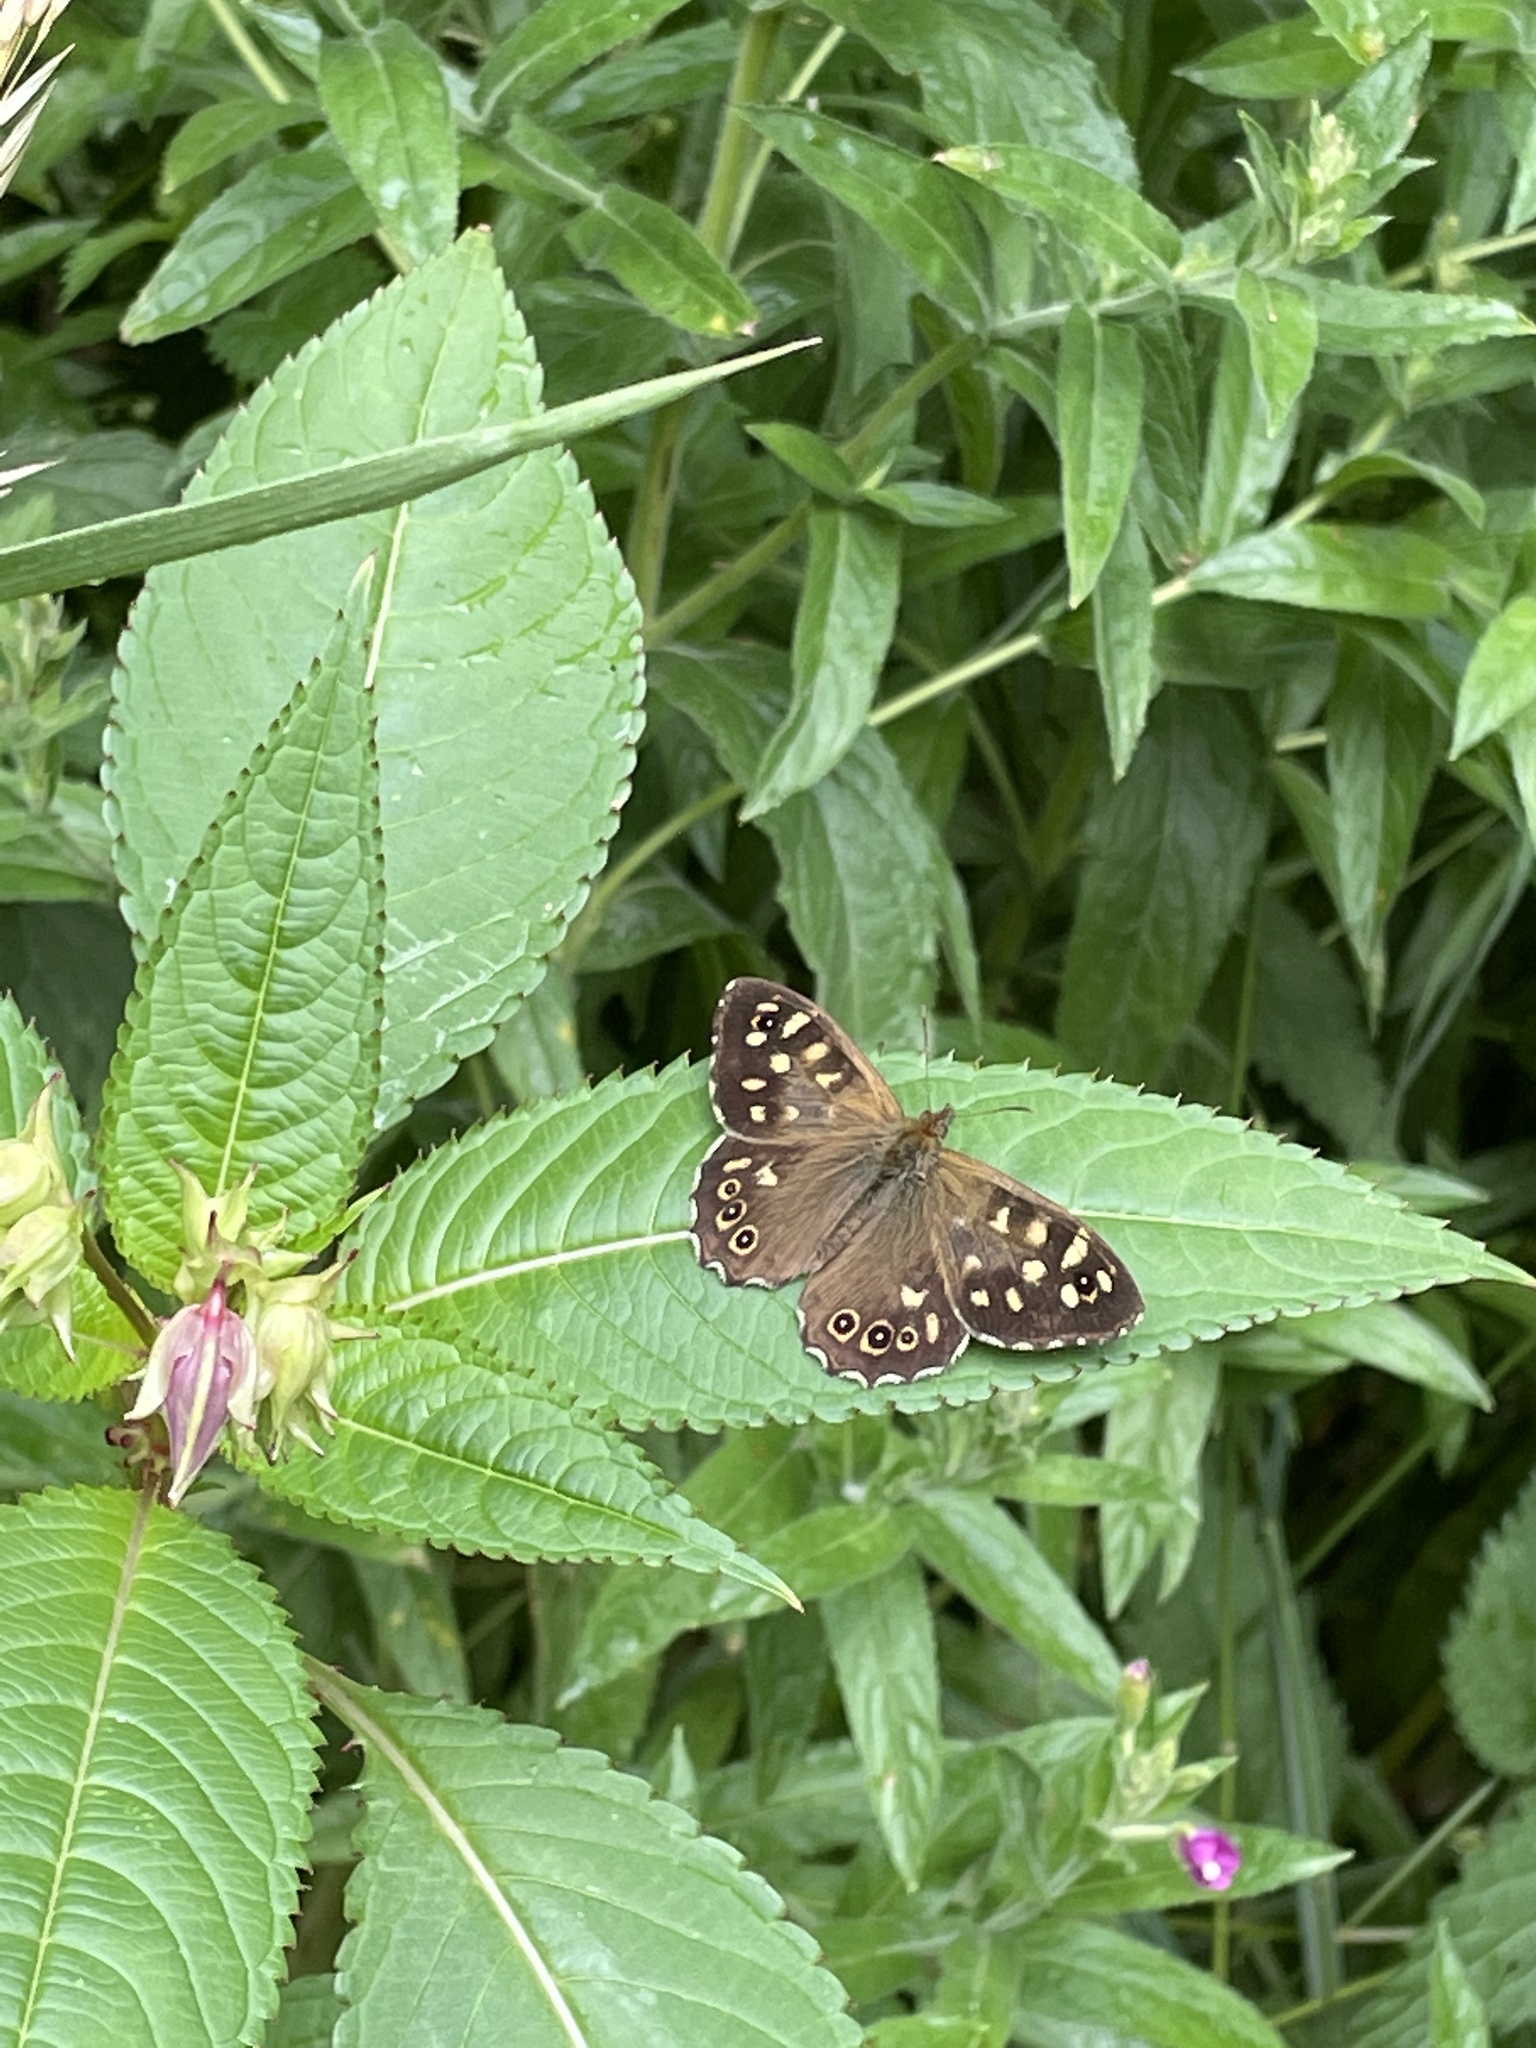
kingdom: Animalia
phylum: Arthropoda
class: Insecta
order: Lepidoptera
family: Nymphalidae
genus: Pararge
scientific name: Pararge aegeria
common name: Speckled wood
